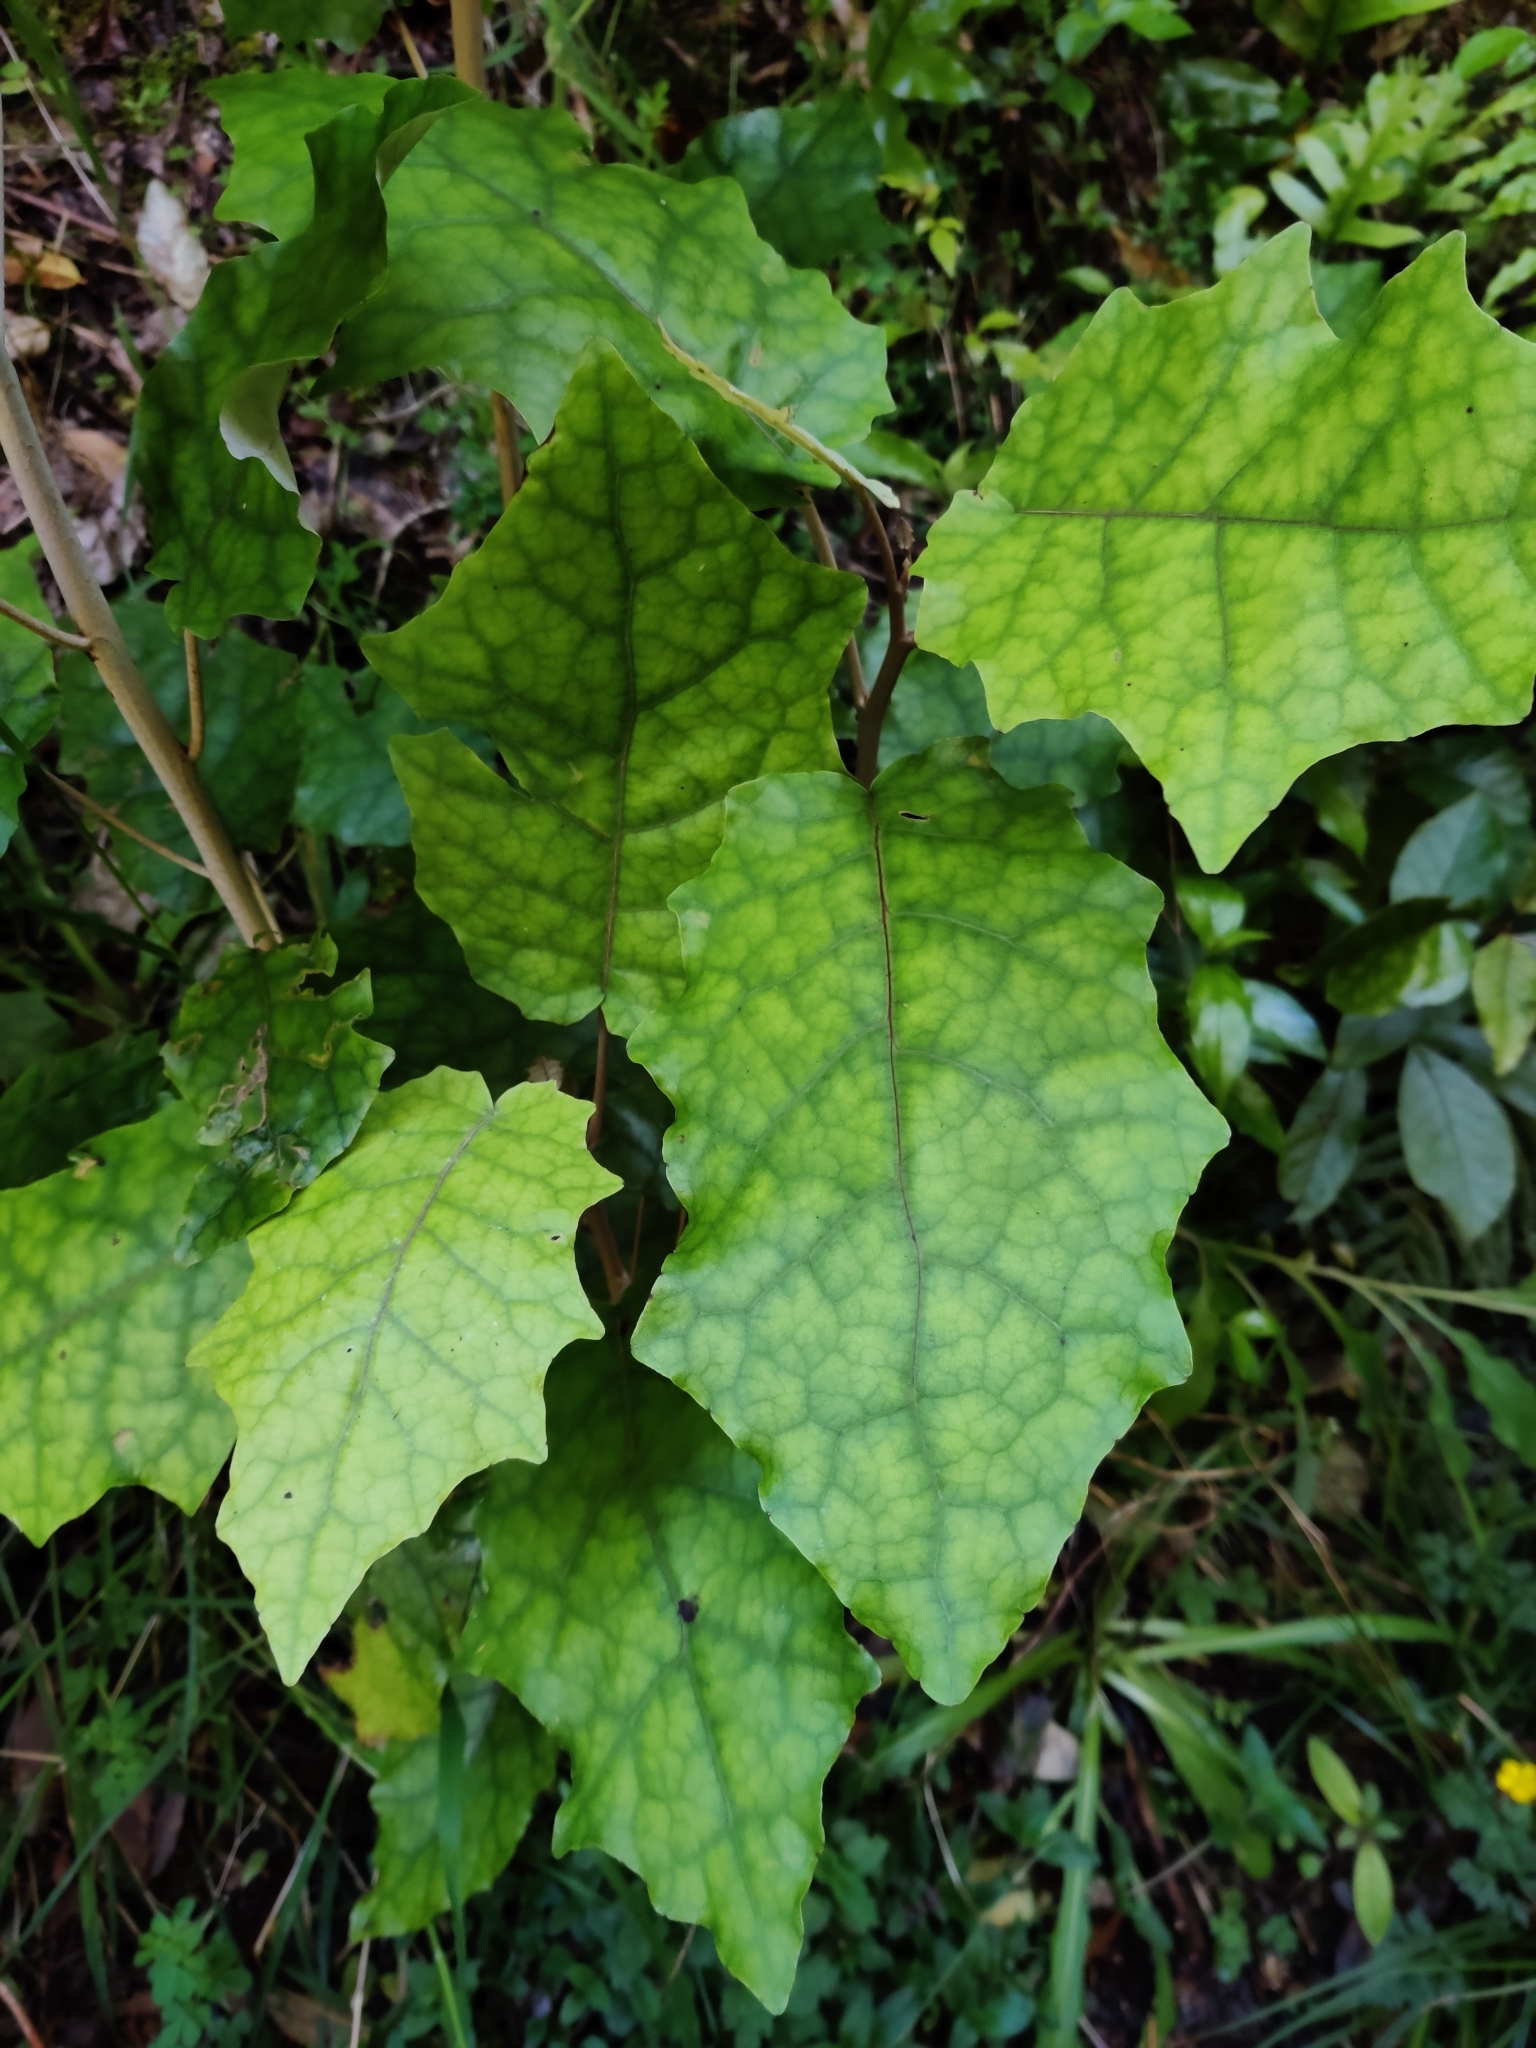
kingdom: Plantae
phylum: Tracheophyta
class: Magnoliopsida
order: Asterales
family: Asteraceae
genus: Brachyglottis
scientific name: Brachyglottis repanda
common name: Hedge ragwort
